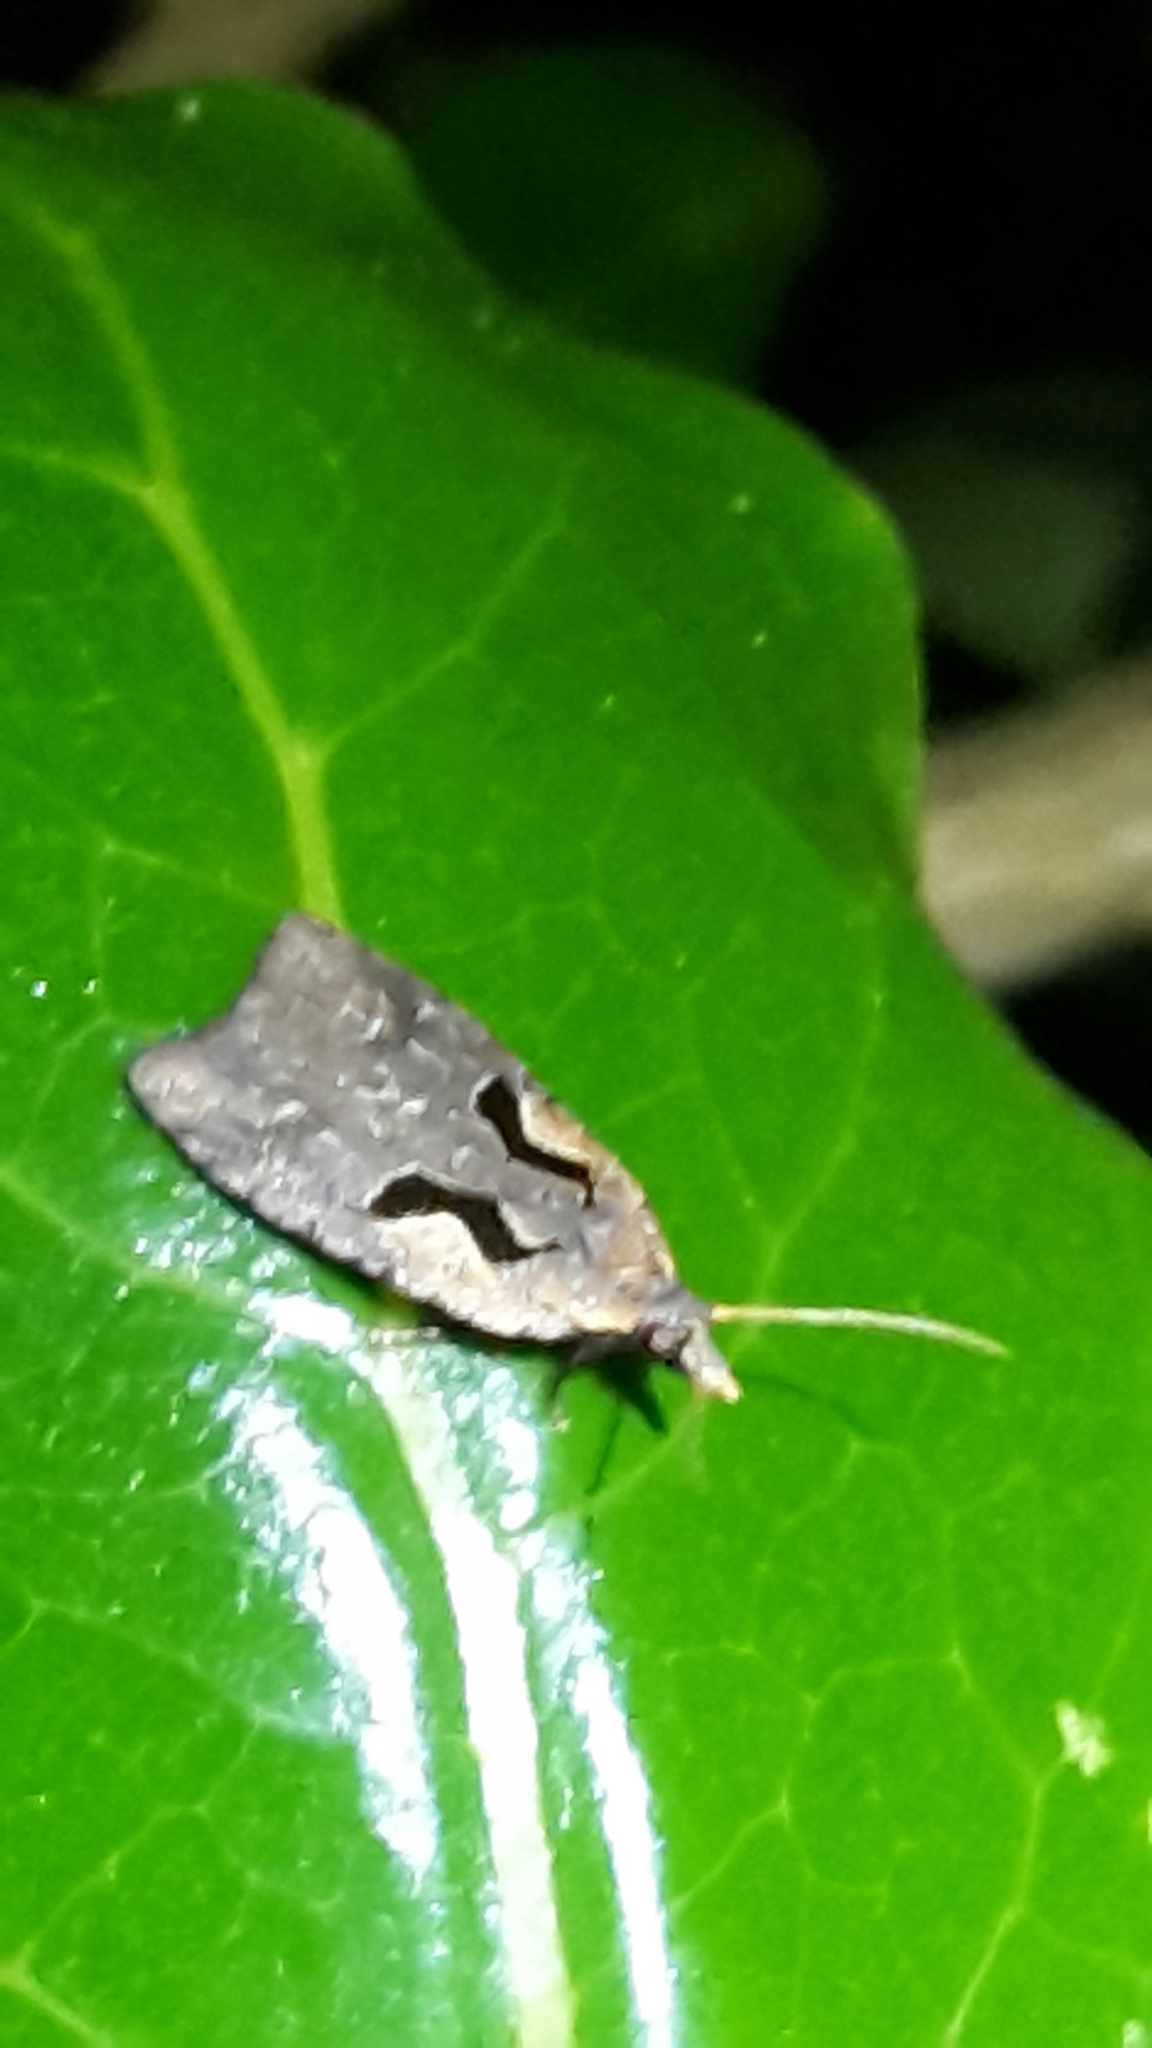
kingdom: Animalia
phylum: Arthropoda
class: Insecta
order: Lepidoptera
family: Tortricidae
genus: Cnephasia
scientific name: Cnephasia jactatana
